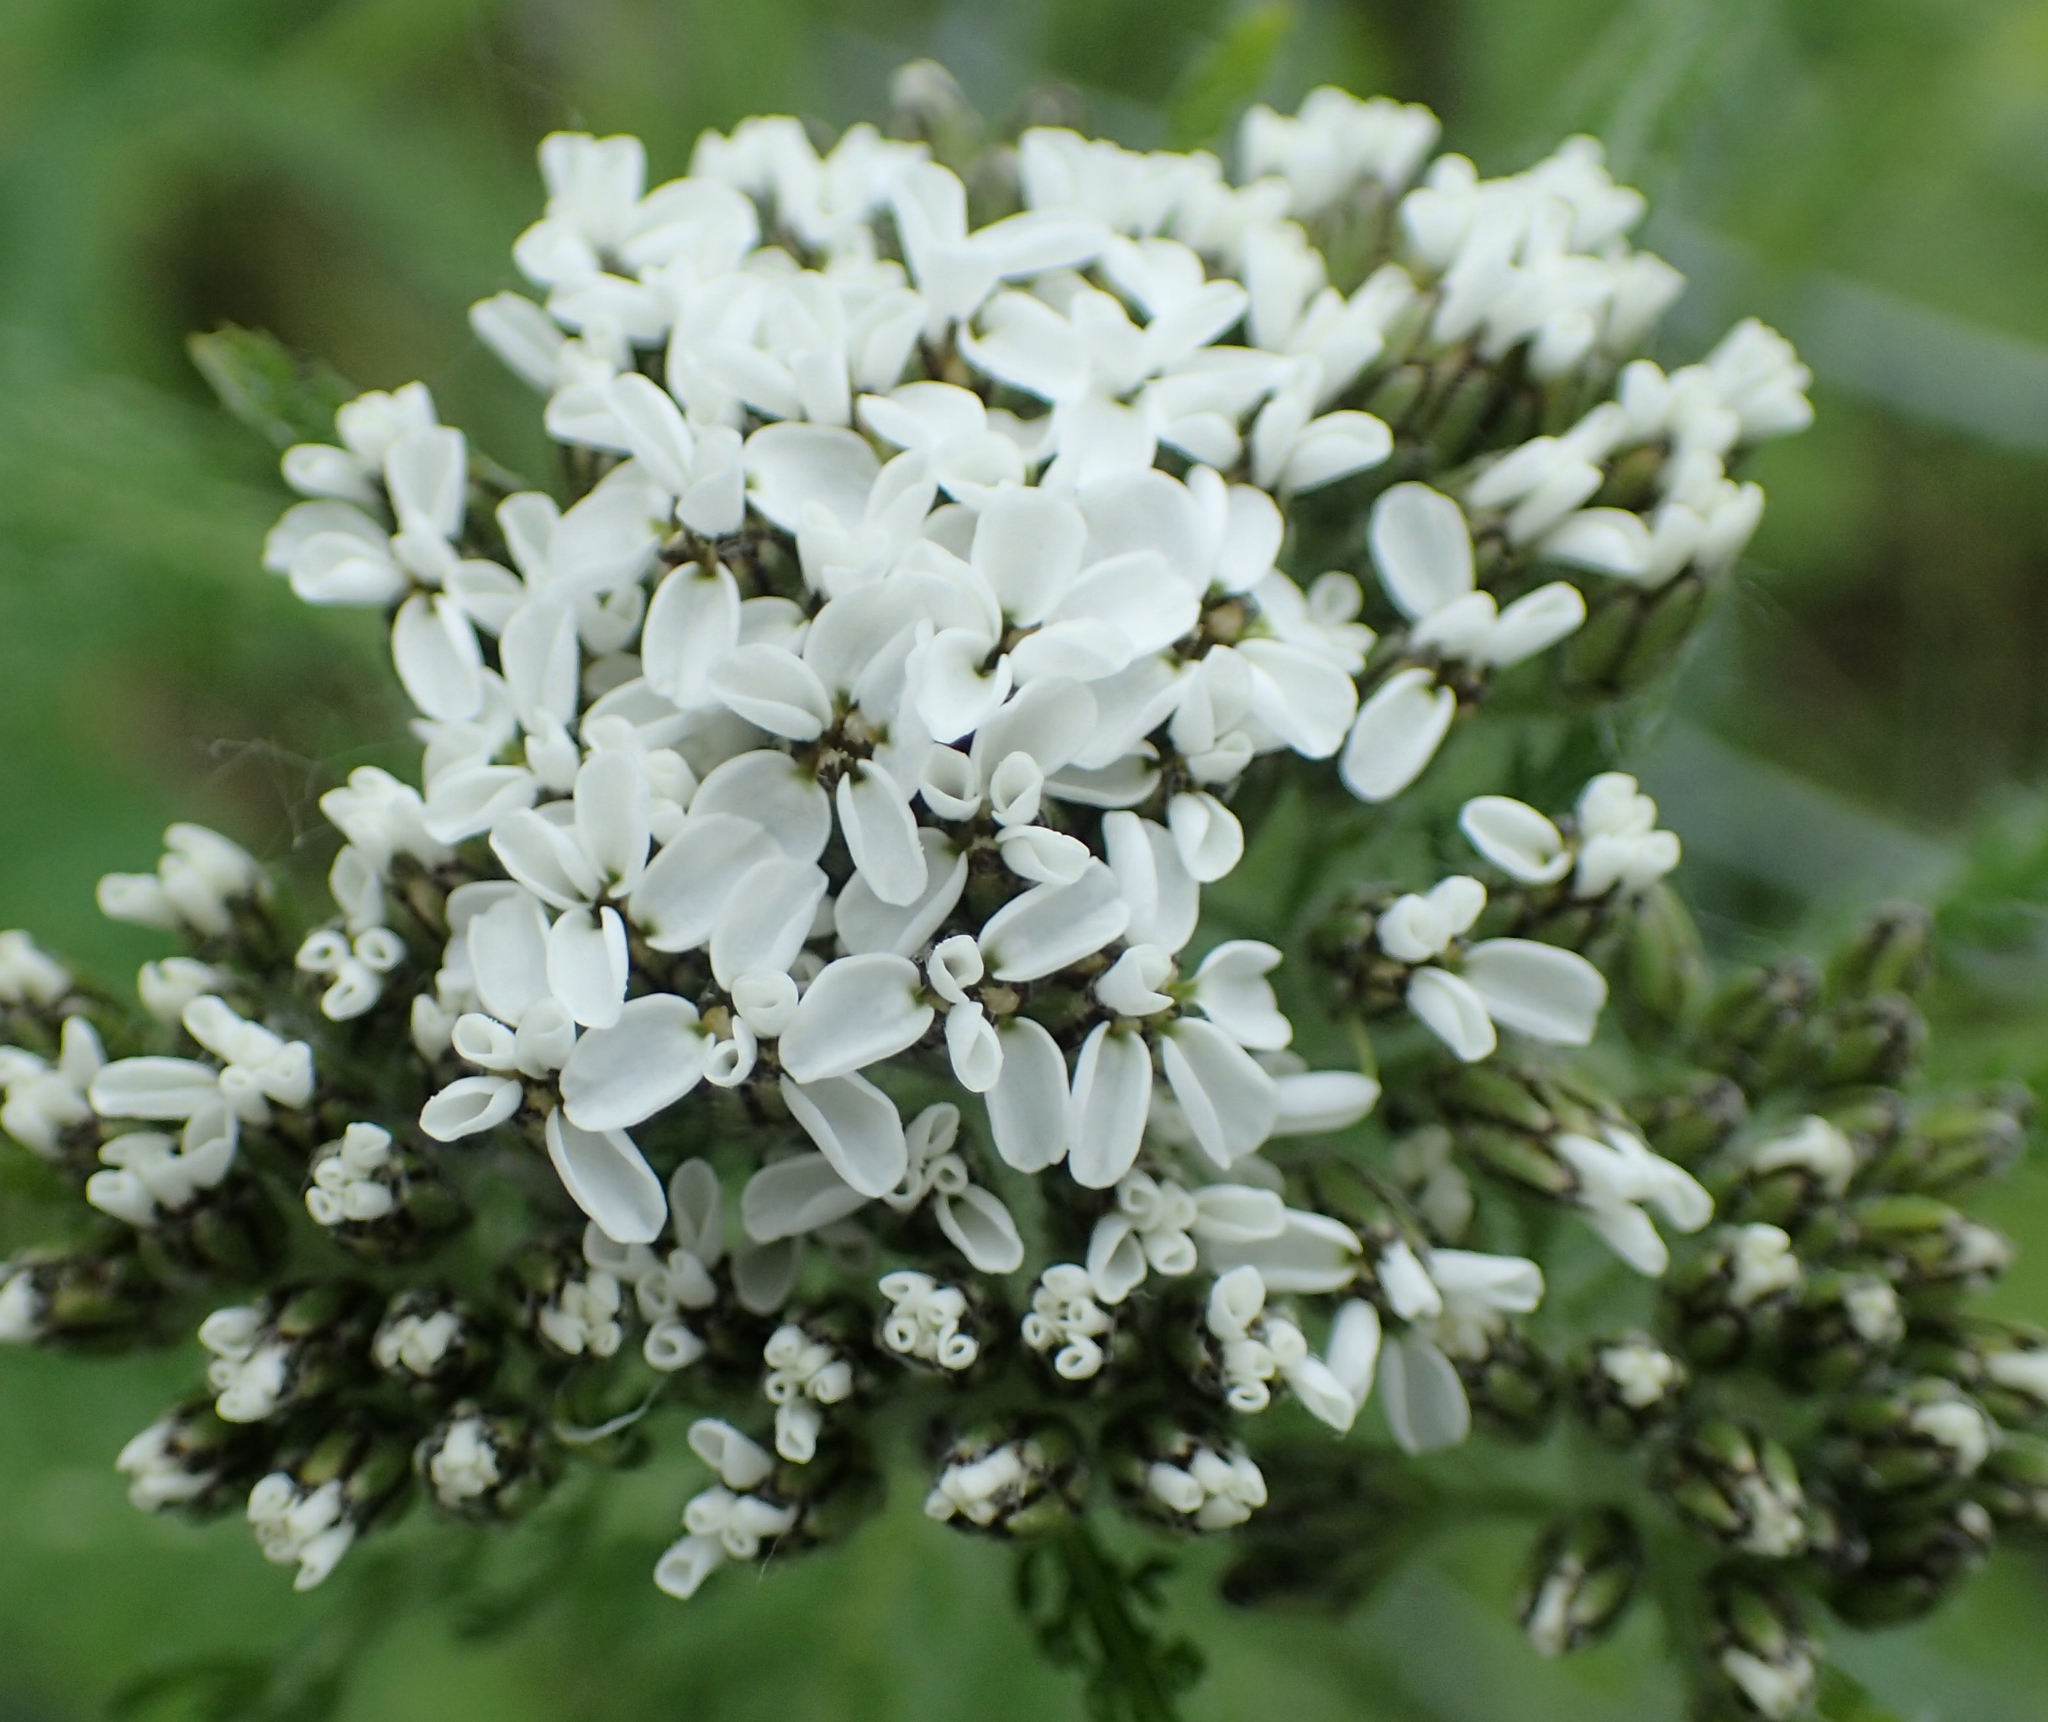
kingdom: Plantae
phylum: Tracheophyta
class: Magnoliopsida
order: Asterales
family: Asteraceae
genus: Achillea
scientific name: Achillea millefolium
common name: Yarrow
